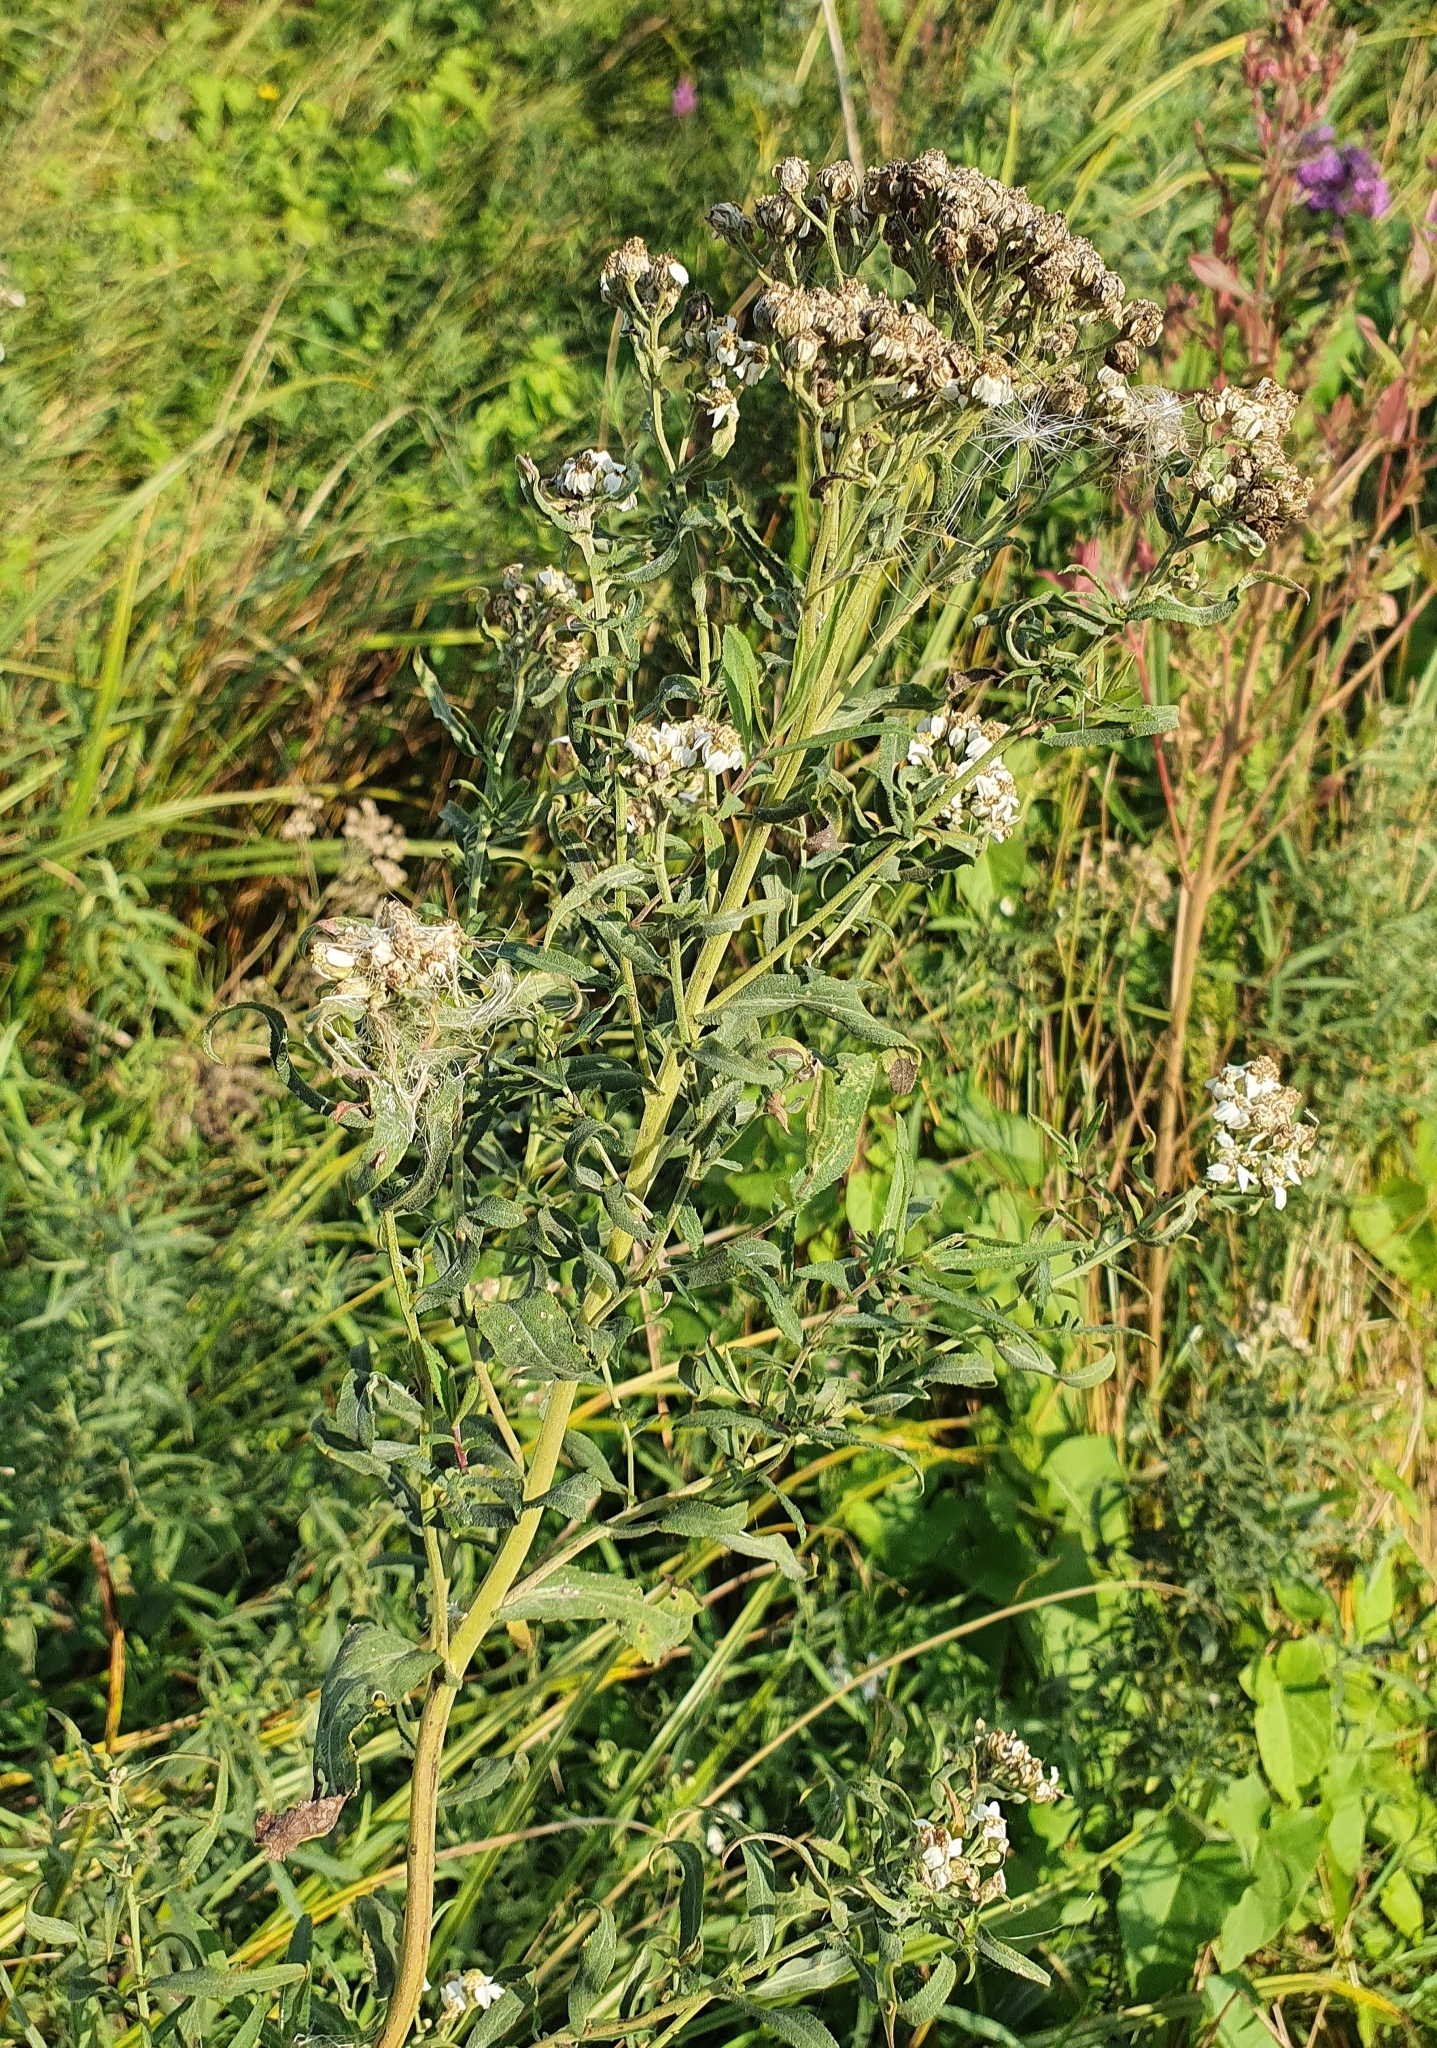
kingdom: Plantae
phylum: Tracheophyta
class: Magnoliopsida
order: Asterales
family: Asteraceae
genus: Achillea
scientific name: Achillea salicifolia
